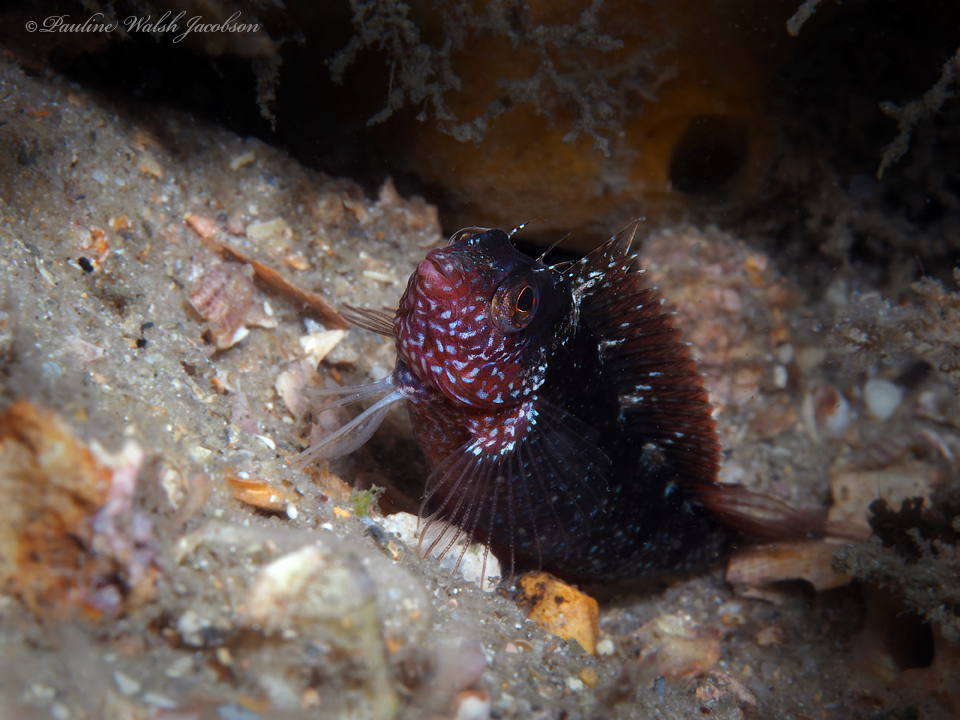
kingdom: Animalia
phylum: Chordata
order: Perciformes
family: Labrisomidae
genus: Malacoctenus
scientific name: Malacoctenus macropus
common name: Rosy blenny
